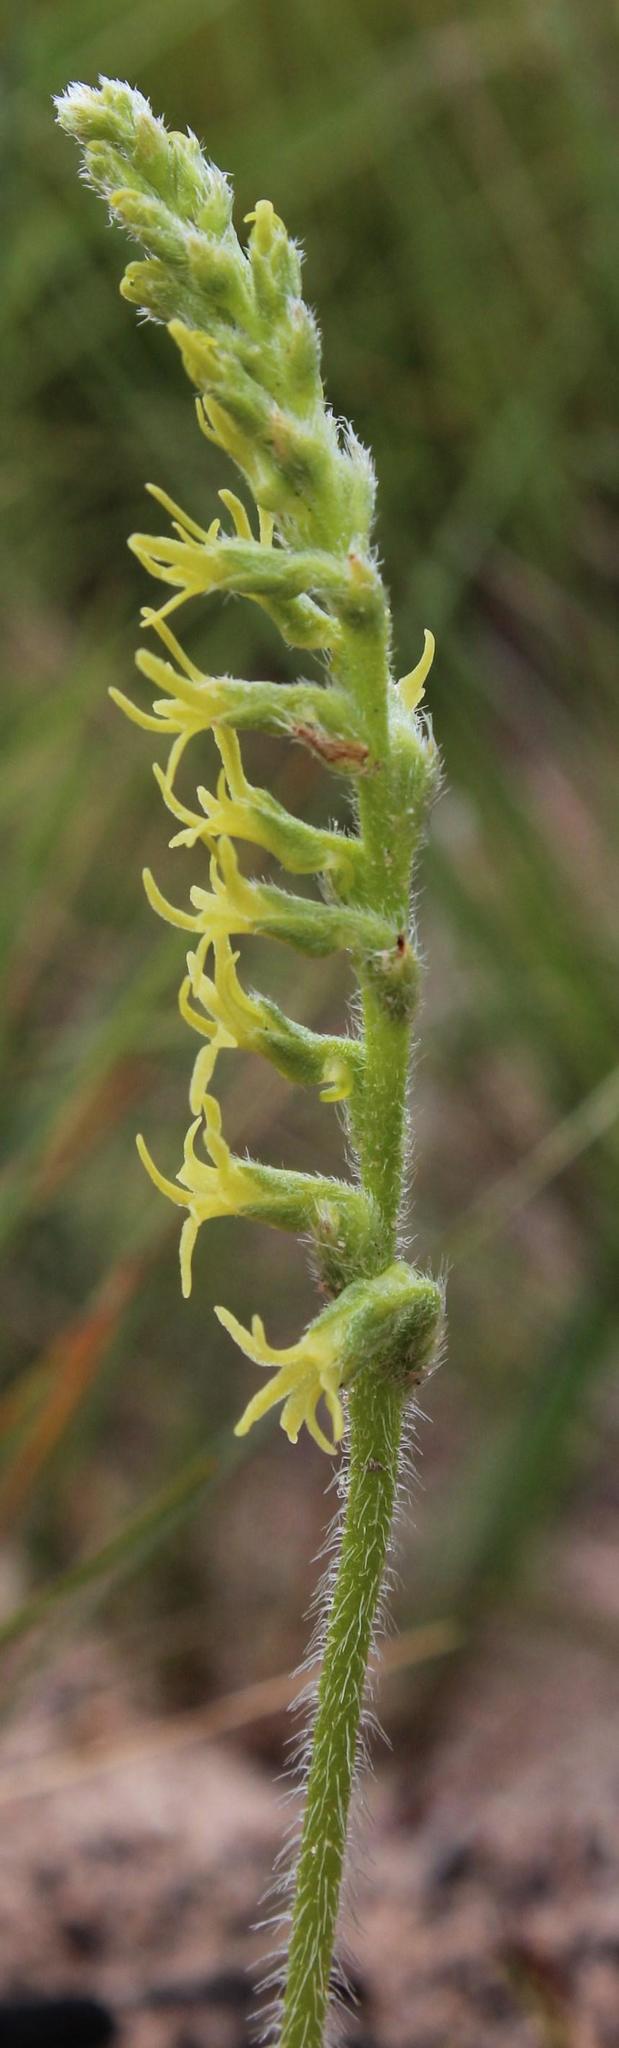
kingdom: Plantae
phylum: Tracheophyta
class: Liliopsida
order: Asparagales
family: Orchidaceae
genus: Holothrix
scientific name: Holothrix cernua
